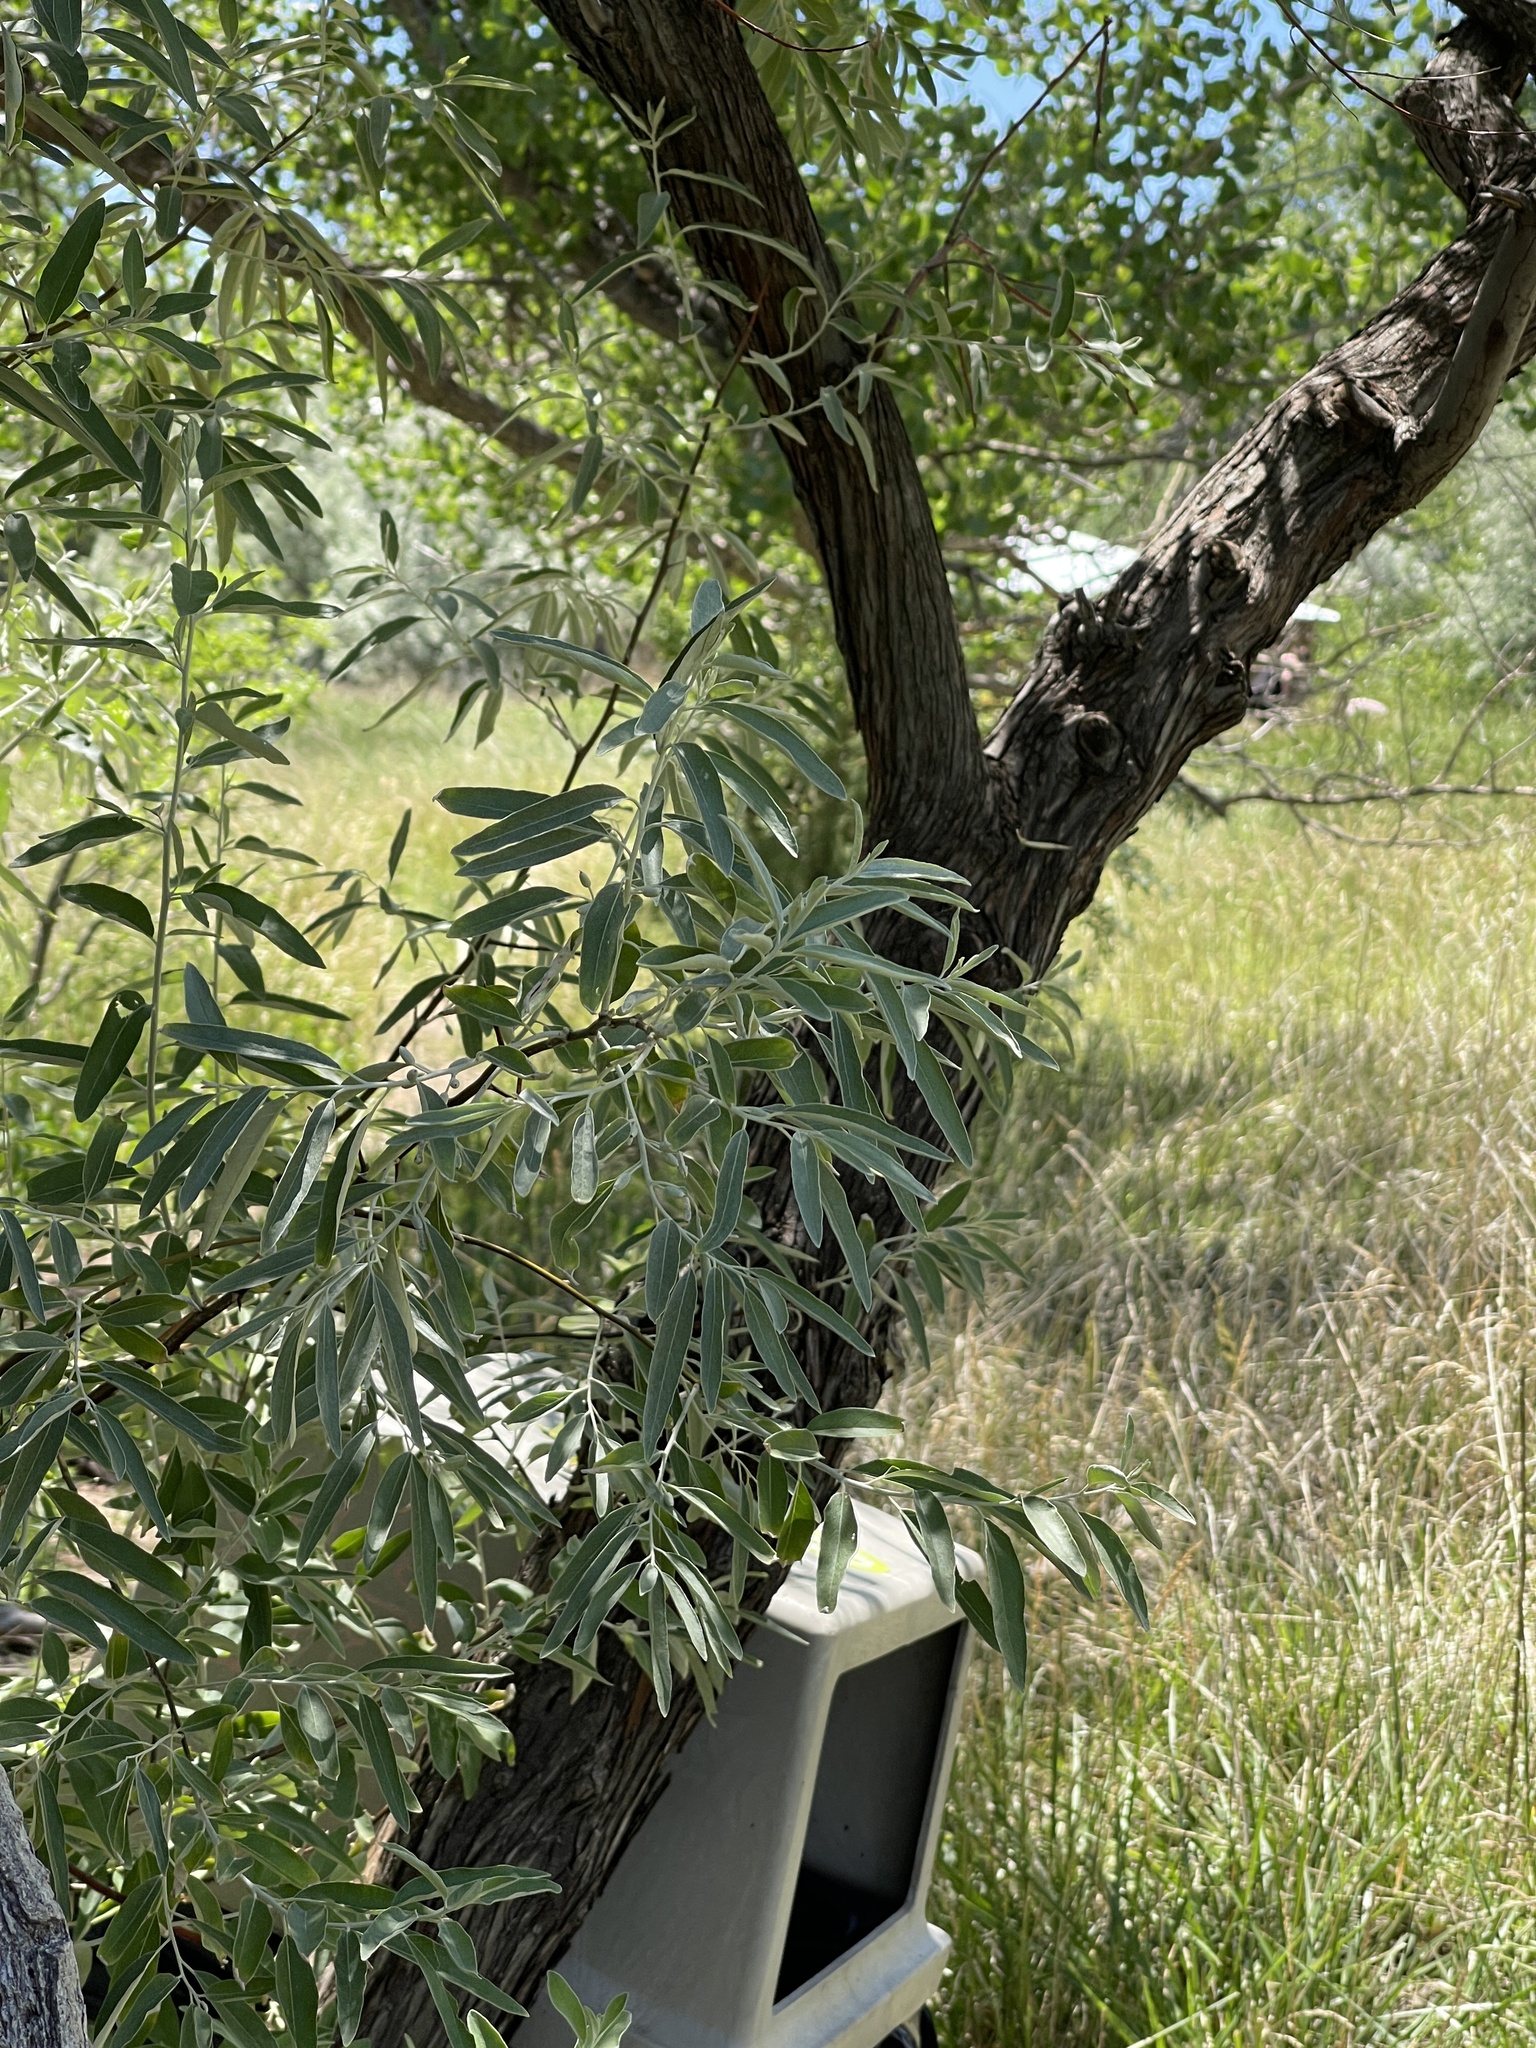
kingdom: Plantae
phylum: Tracheophyta
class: Magnoliopsida
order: Rosales
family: Elaeagnaceae
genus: Elaeagnus
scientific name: Elaeagnus angustifolia
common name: Russian olive
